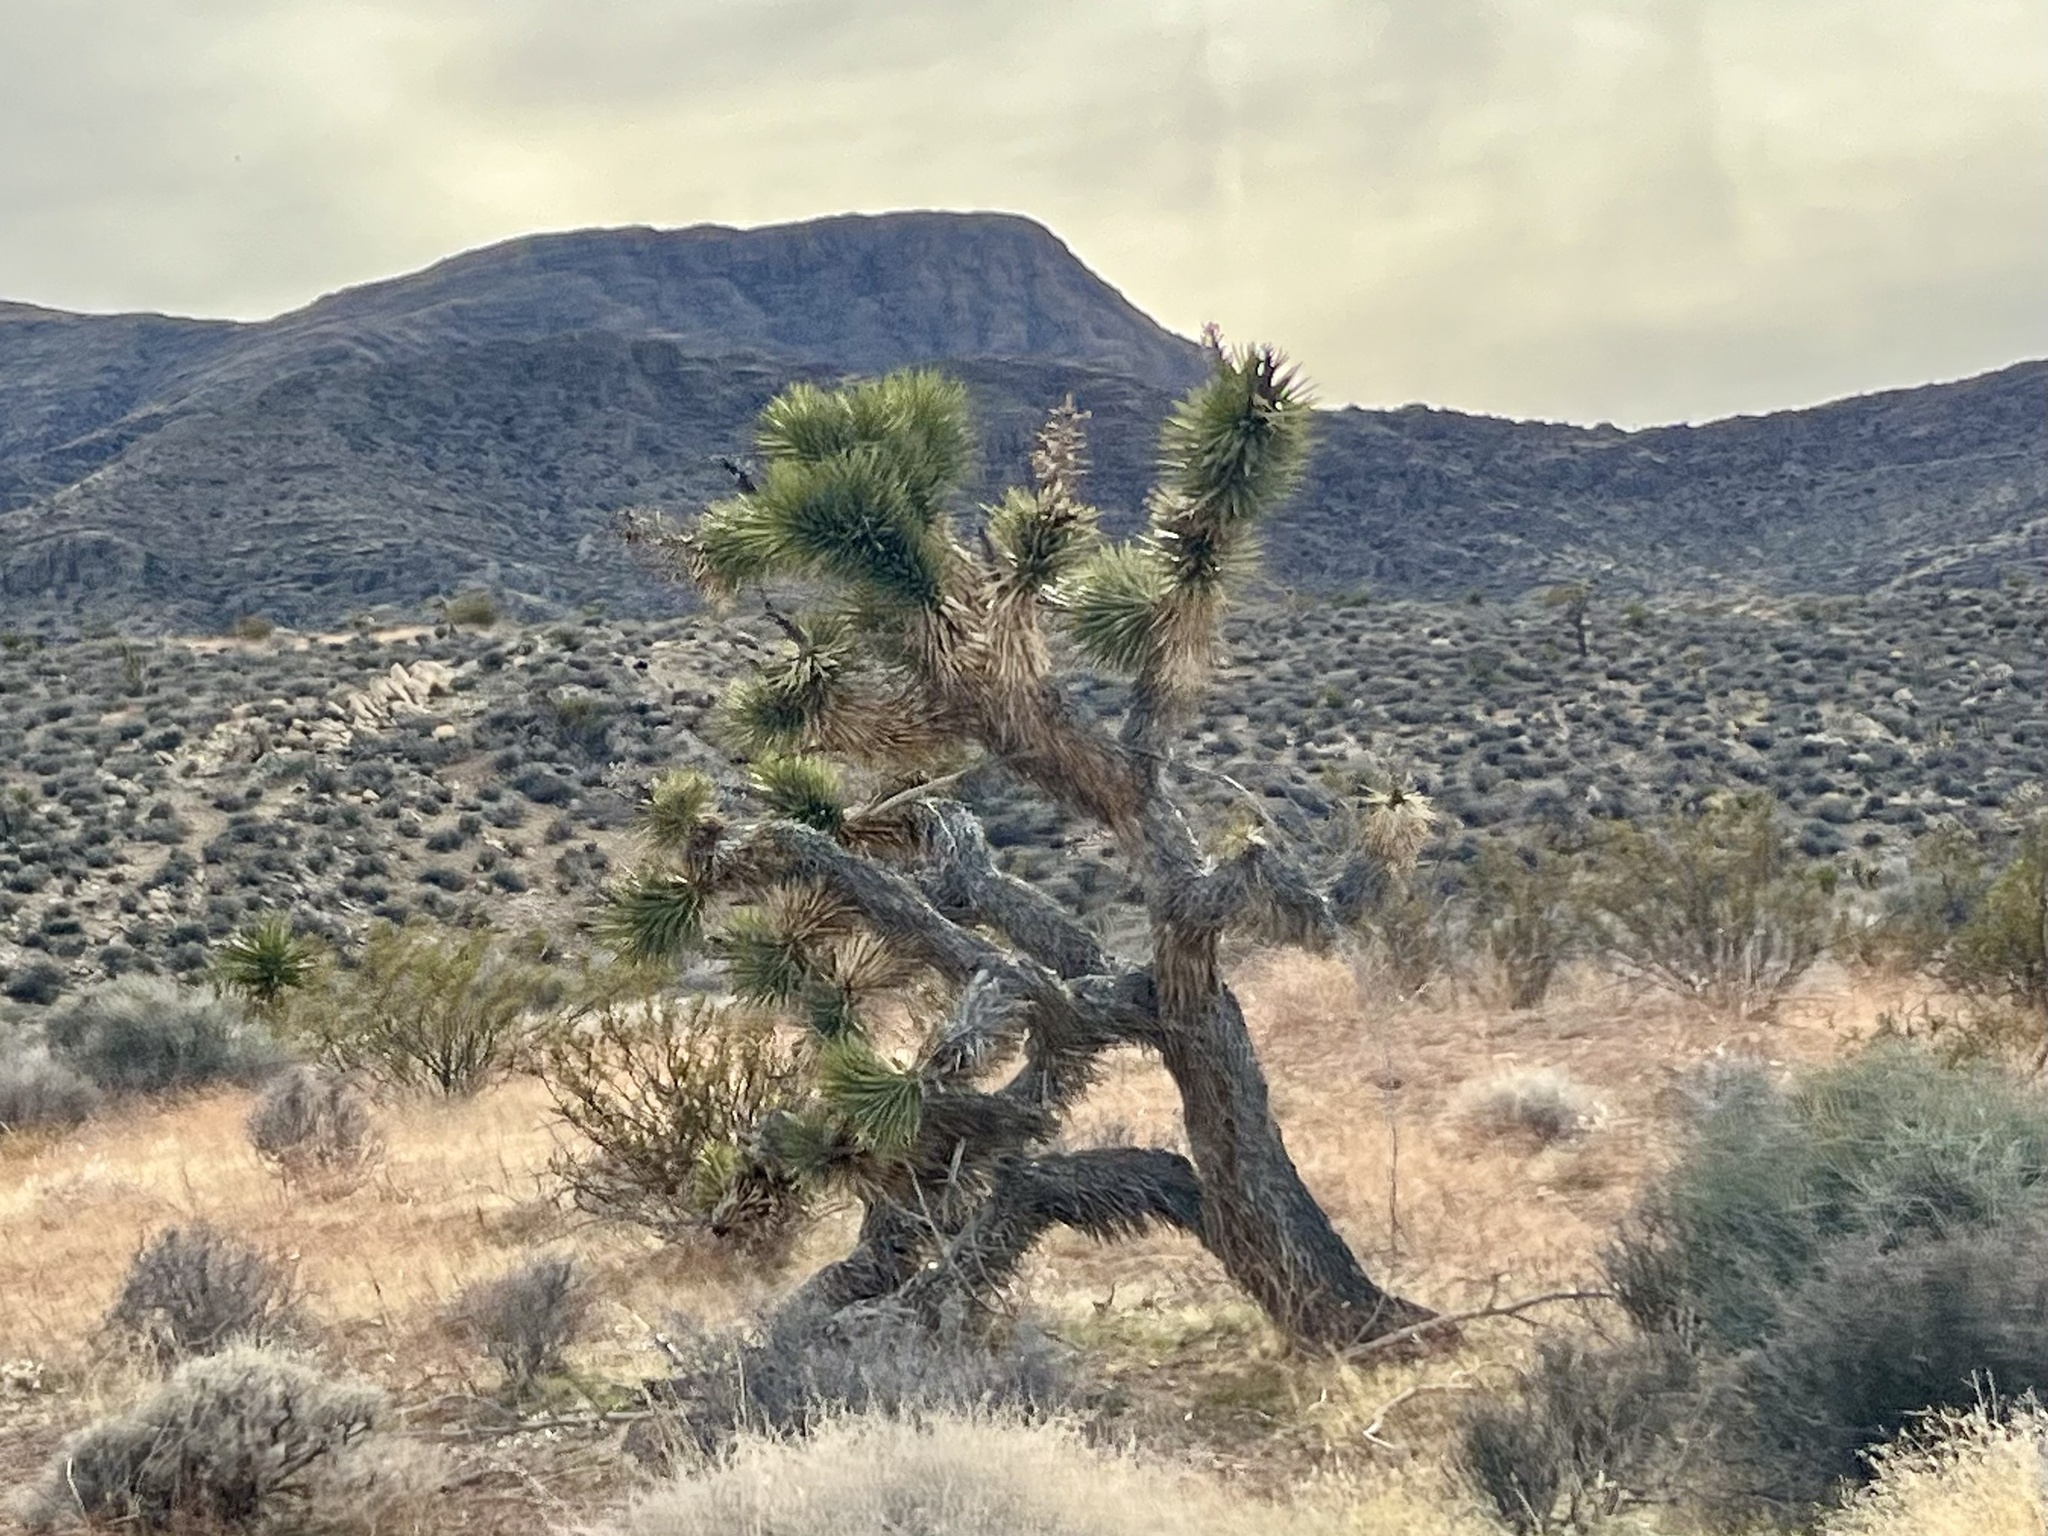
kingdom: Plantae
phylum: Tracheophyta
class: Liliopsida
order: Asparagales
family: Asparagaceae
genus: Yucca
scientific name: Yucca brevifolia
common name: Joshua tree
